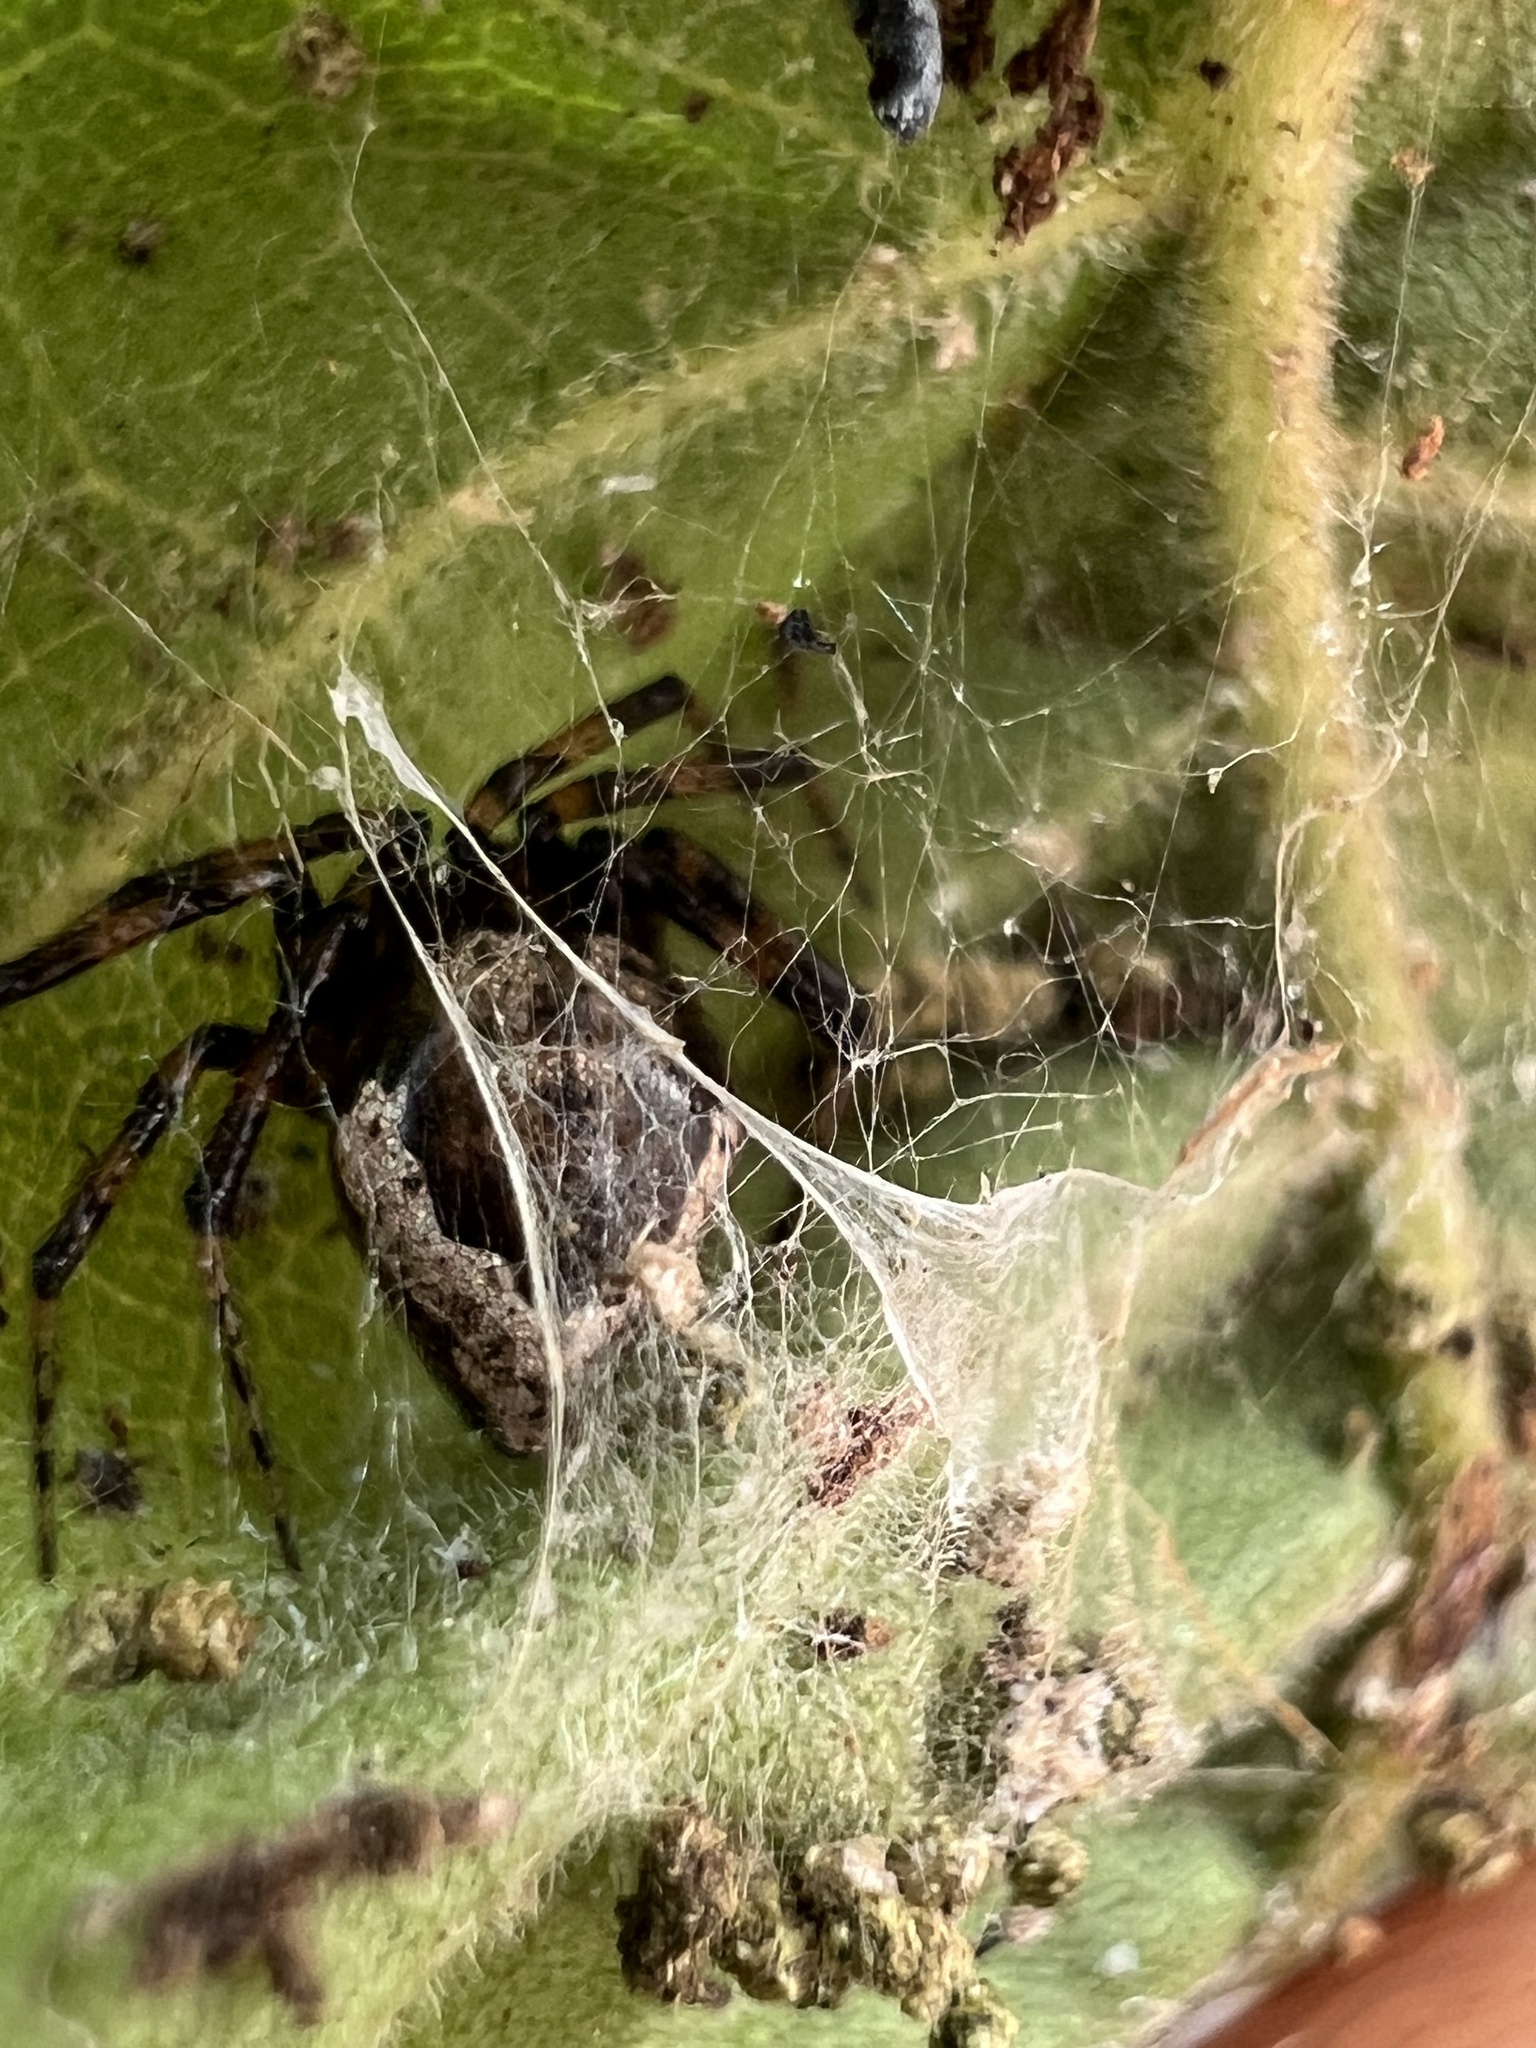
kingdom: Animalia
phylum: Arthropoda
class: Arachnida
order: Araneae
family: Theridiidae
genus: Euryopis
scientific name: Euryopis funebris
